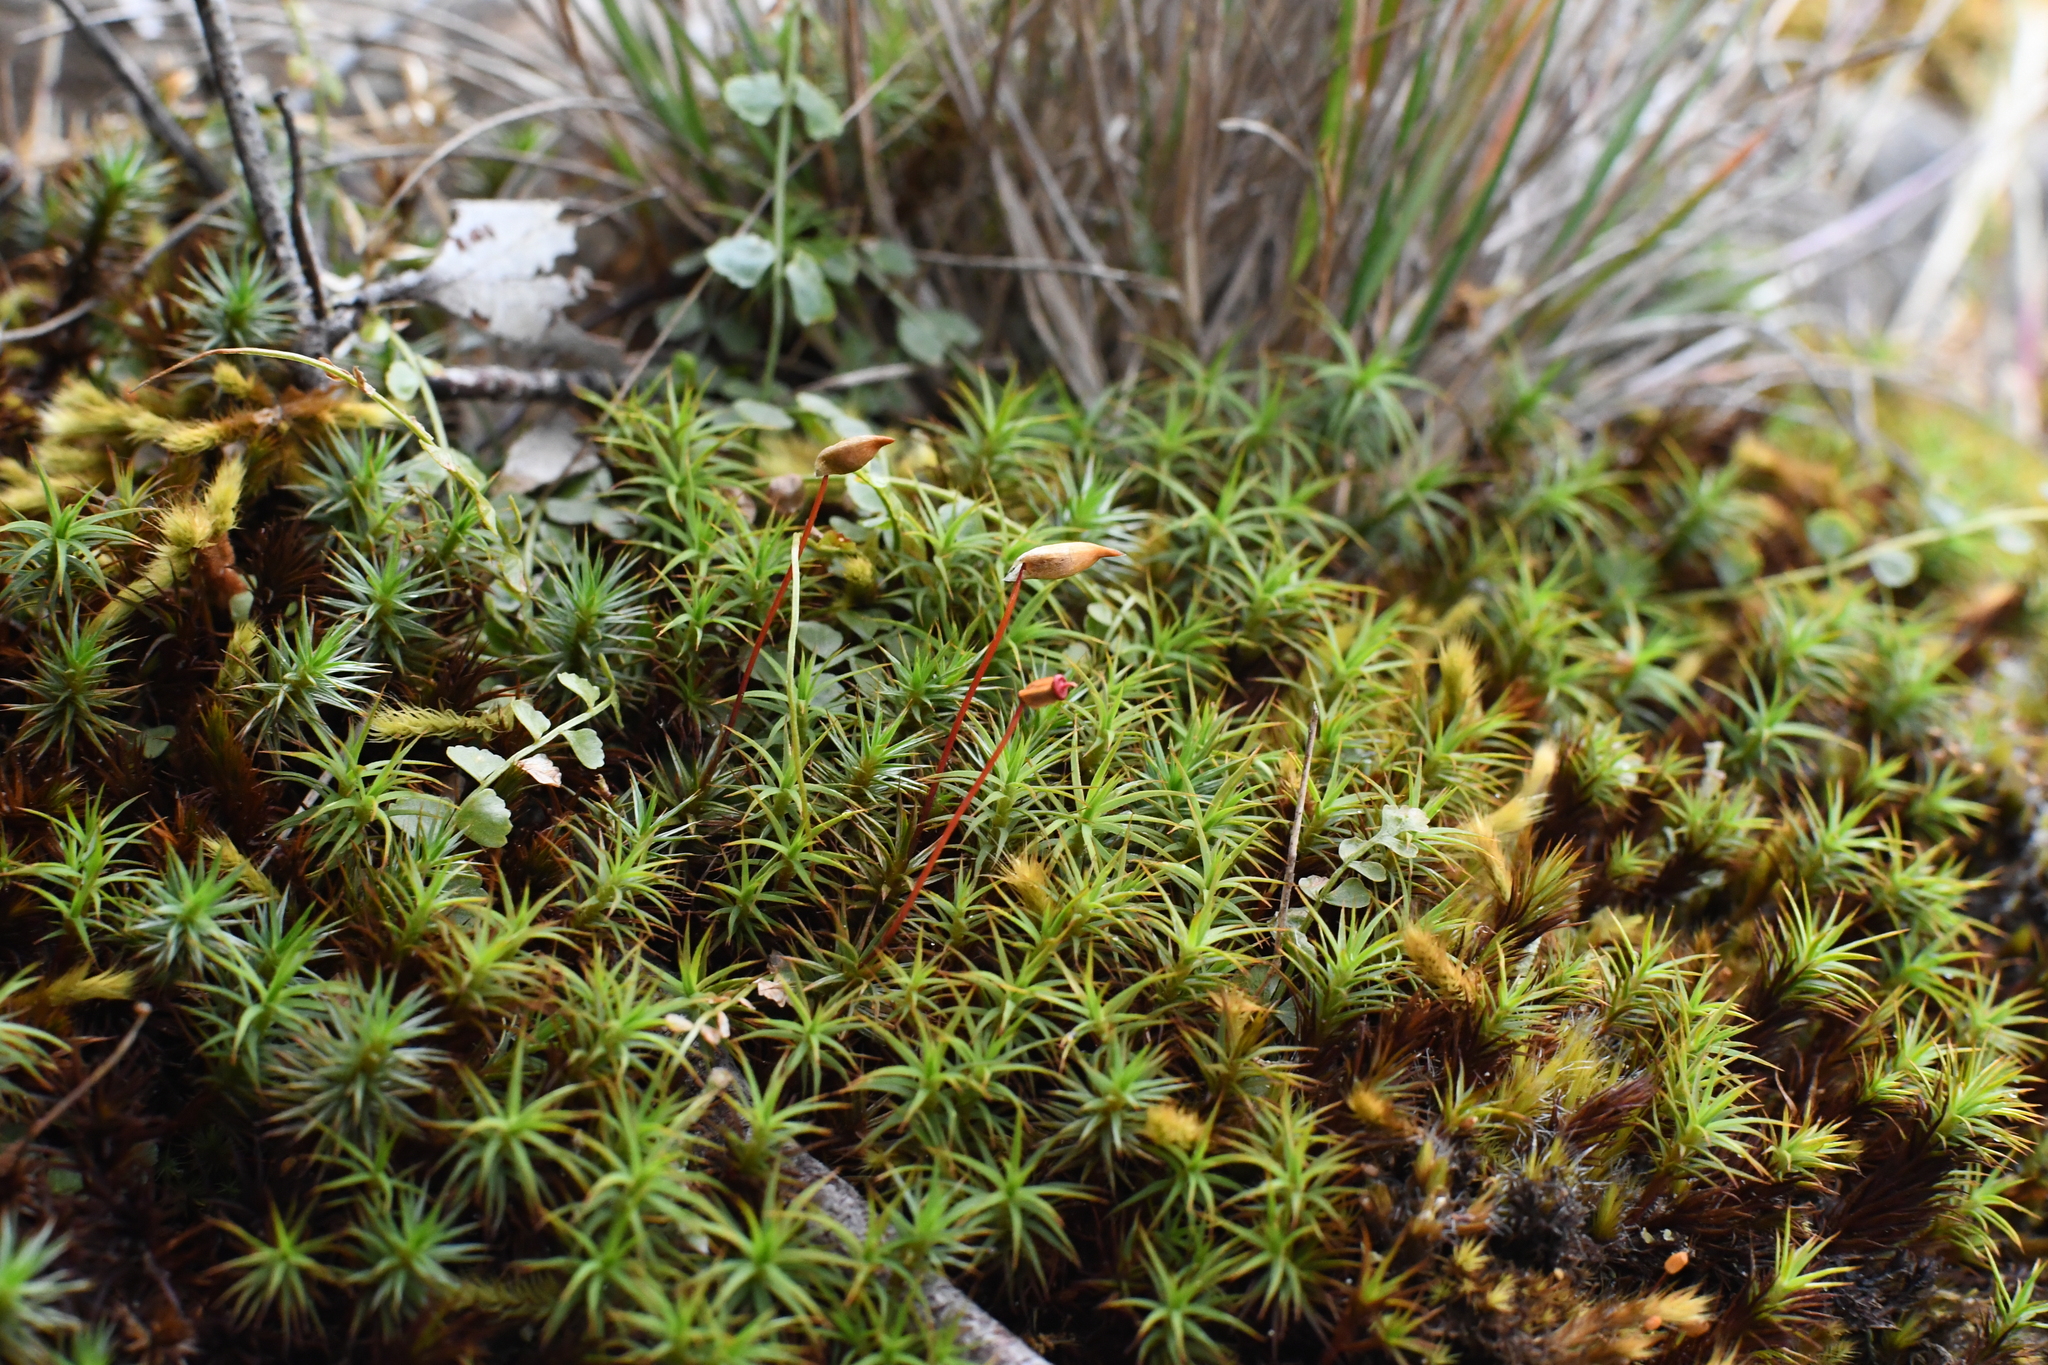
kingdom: Plantae
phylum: Bryophyta
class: Polytrichopsida
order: Polytrichales
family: Polytrichaceae
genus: Polytrichum
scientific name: Polytrichum juniperinum
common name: Juniper haircap moss
